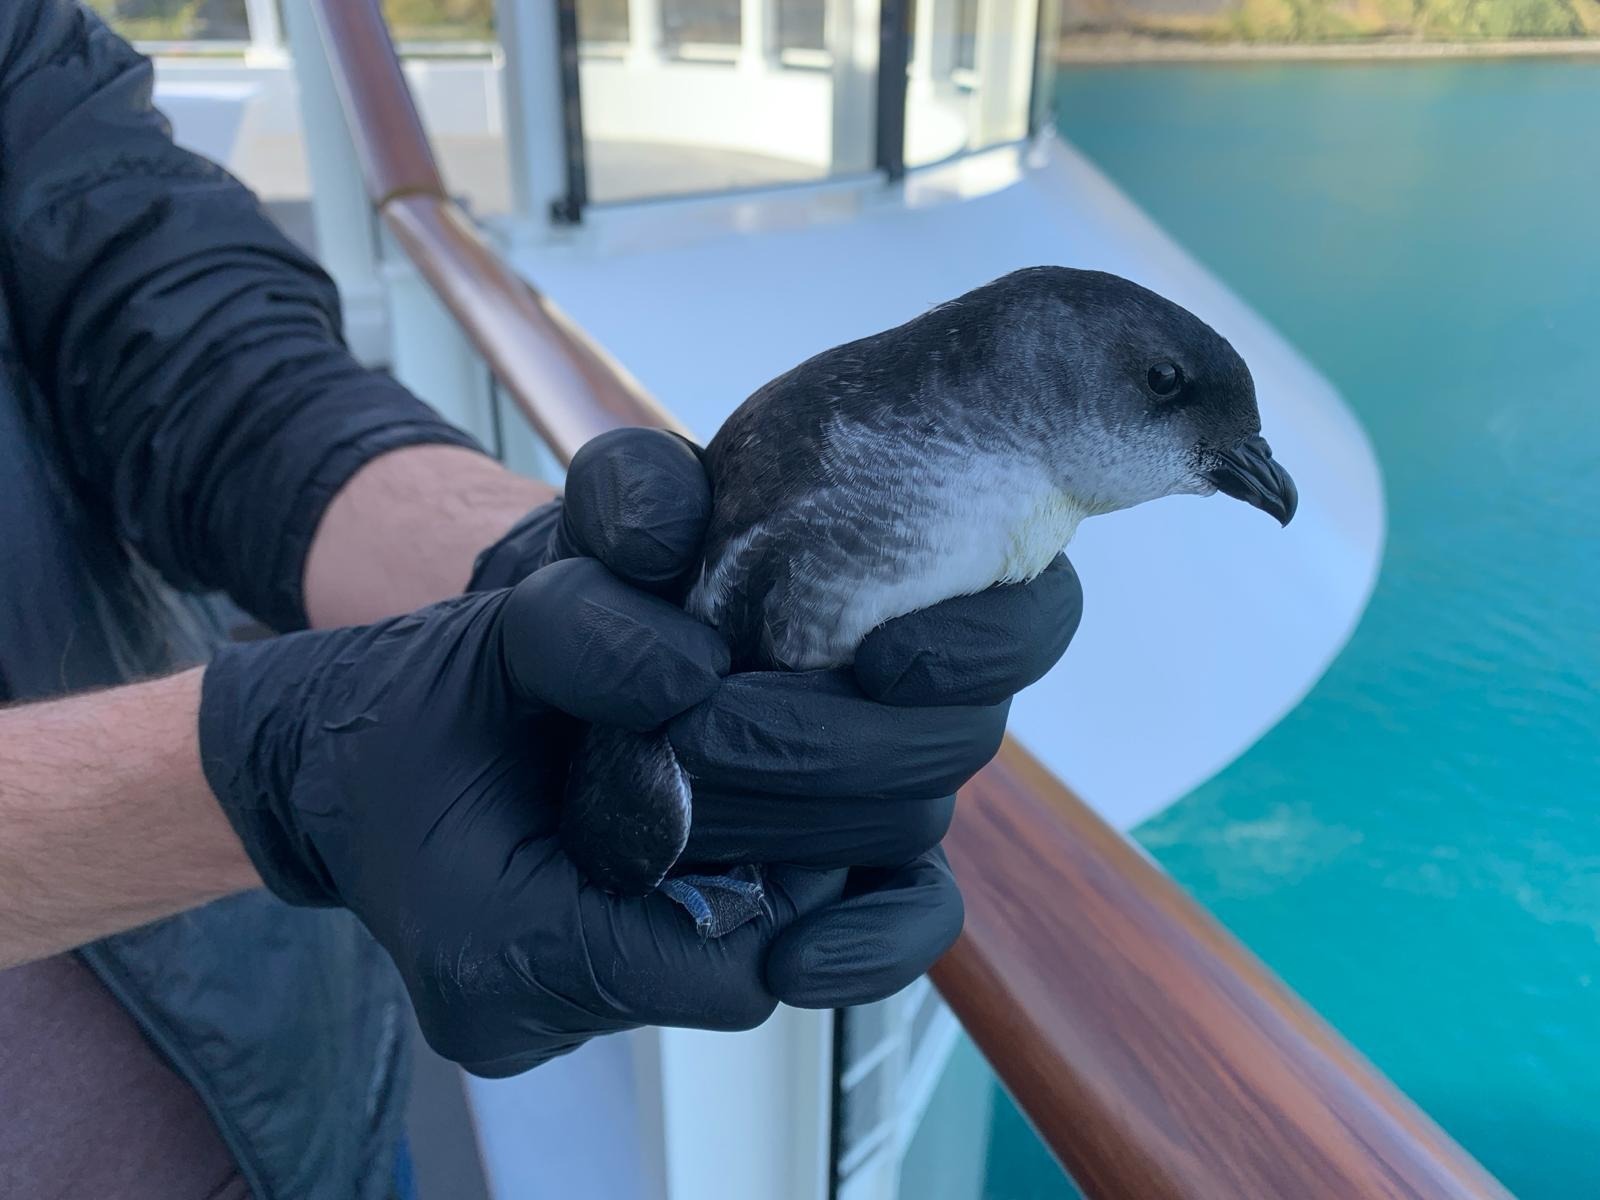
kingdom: Animalia
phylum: Chordata
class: Aves
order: Procellariiformes
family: Pelecanoididae
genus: Pelecanoides
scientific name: Pelecanoides georgicus
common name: South georgia diving-petrel
